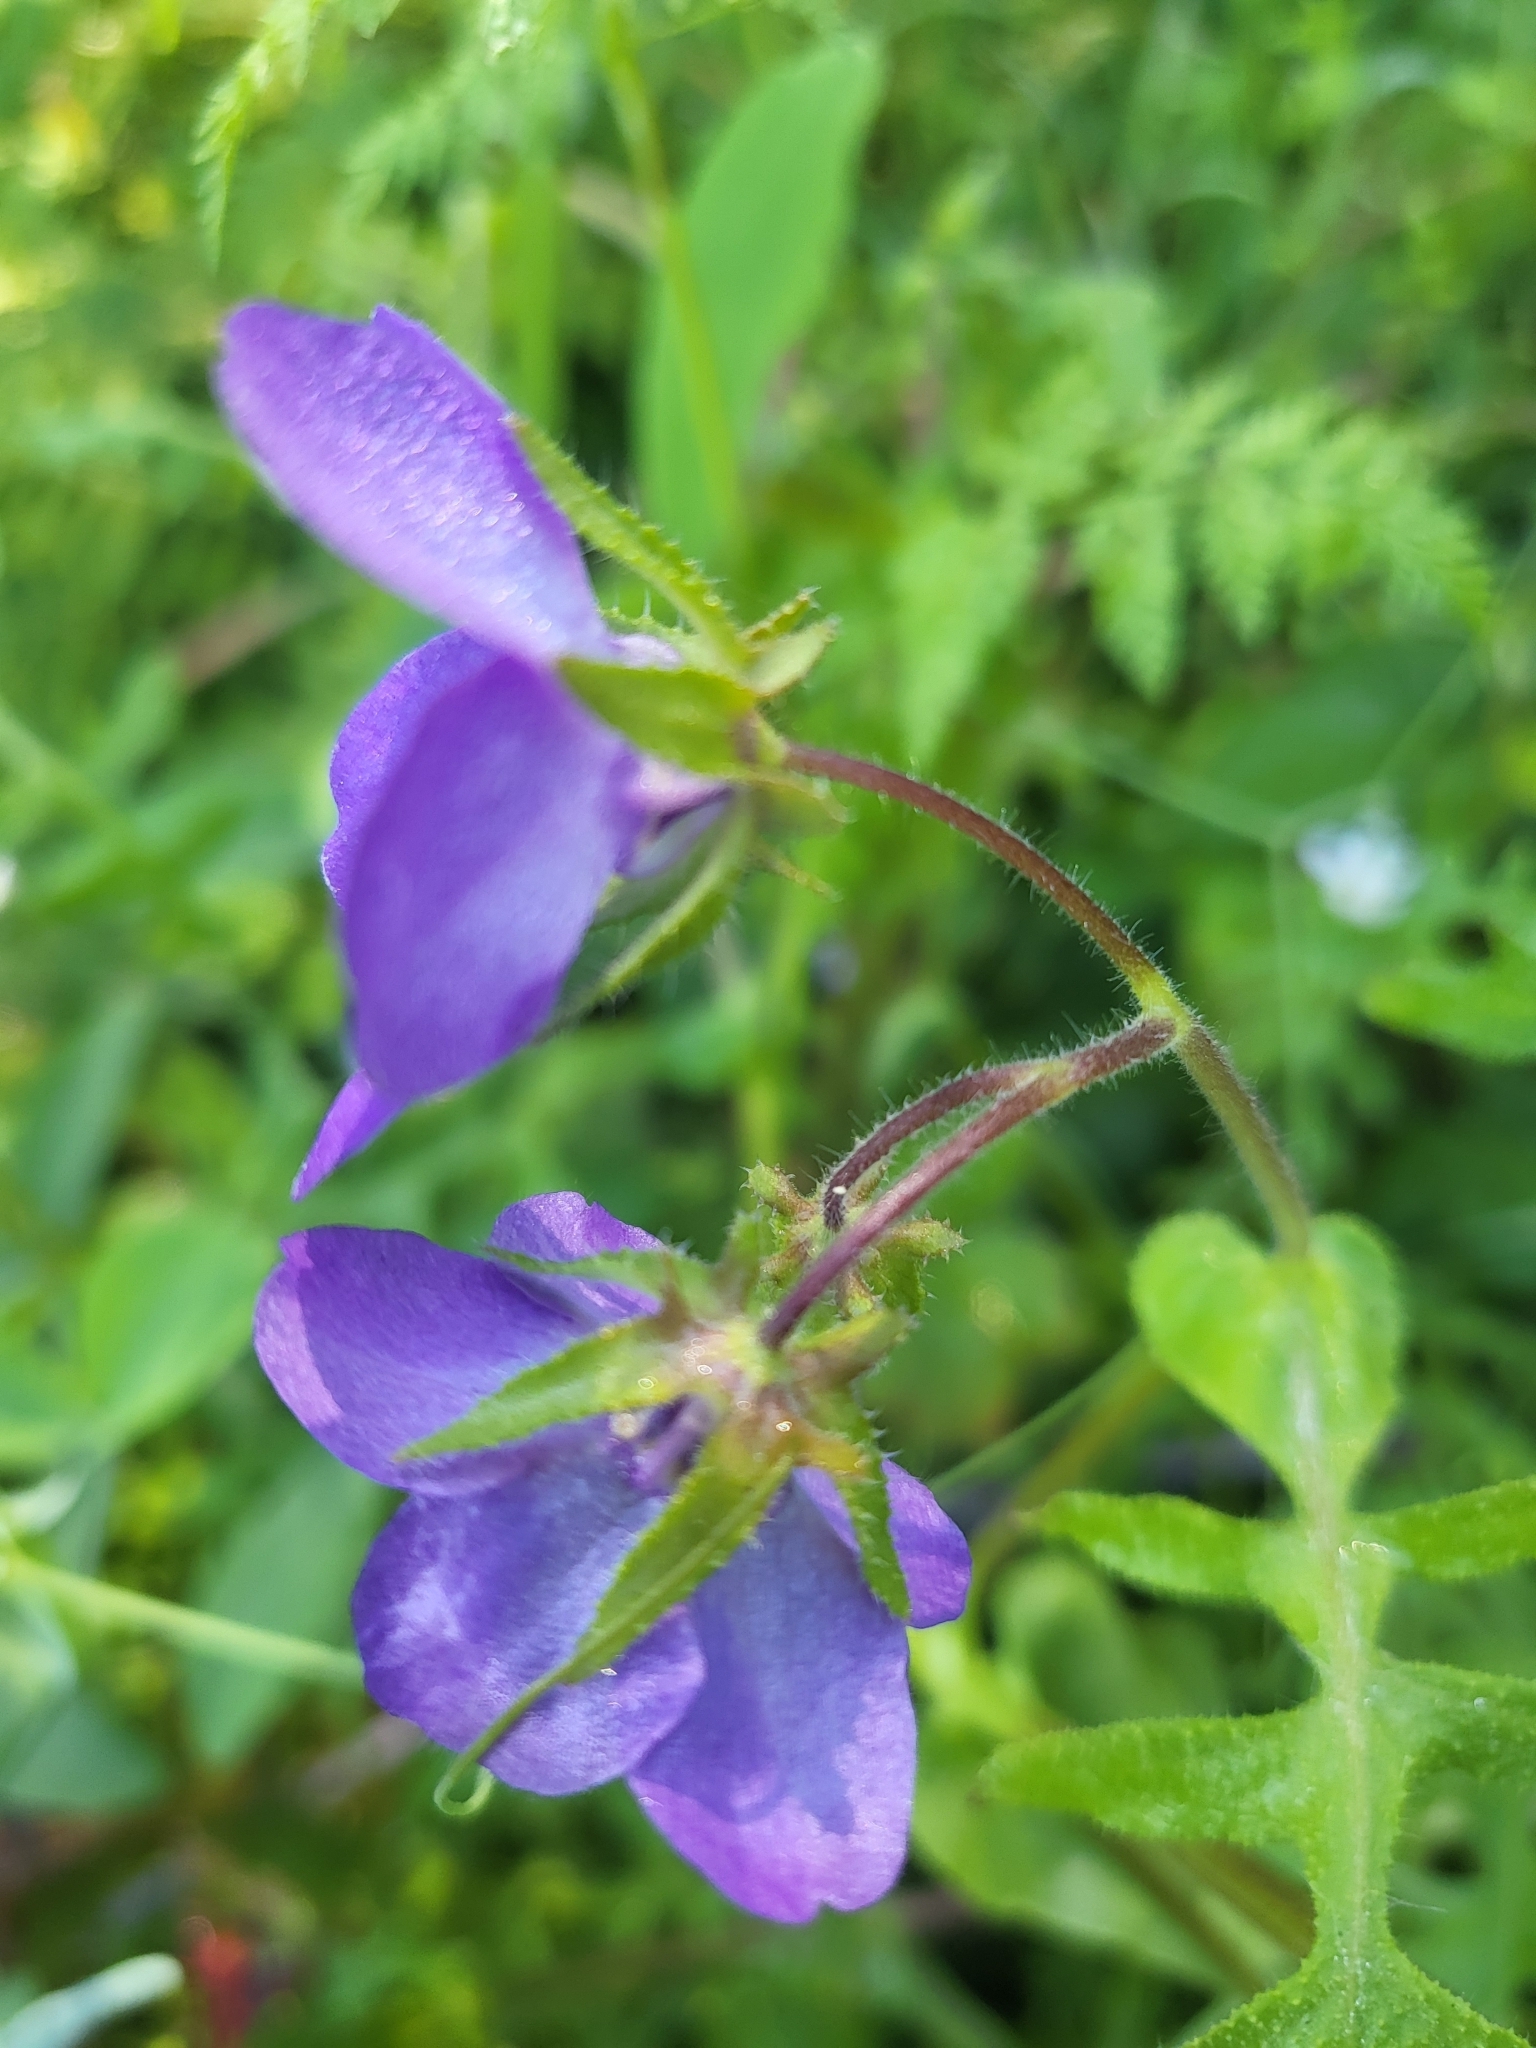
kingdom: Plantae
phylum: Tracheophyta
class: Magnoliopsida
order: Boraginales
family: Hydrophyllaceae
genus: Pholistoma
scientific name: Pholistoma auritum
